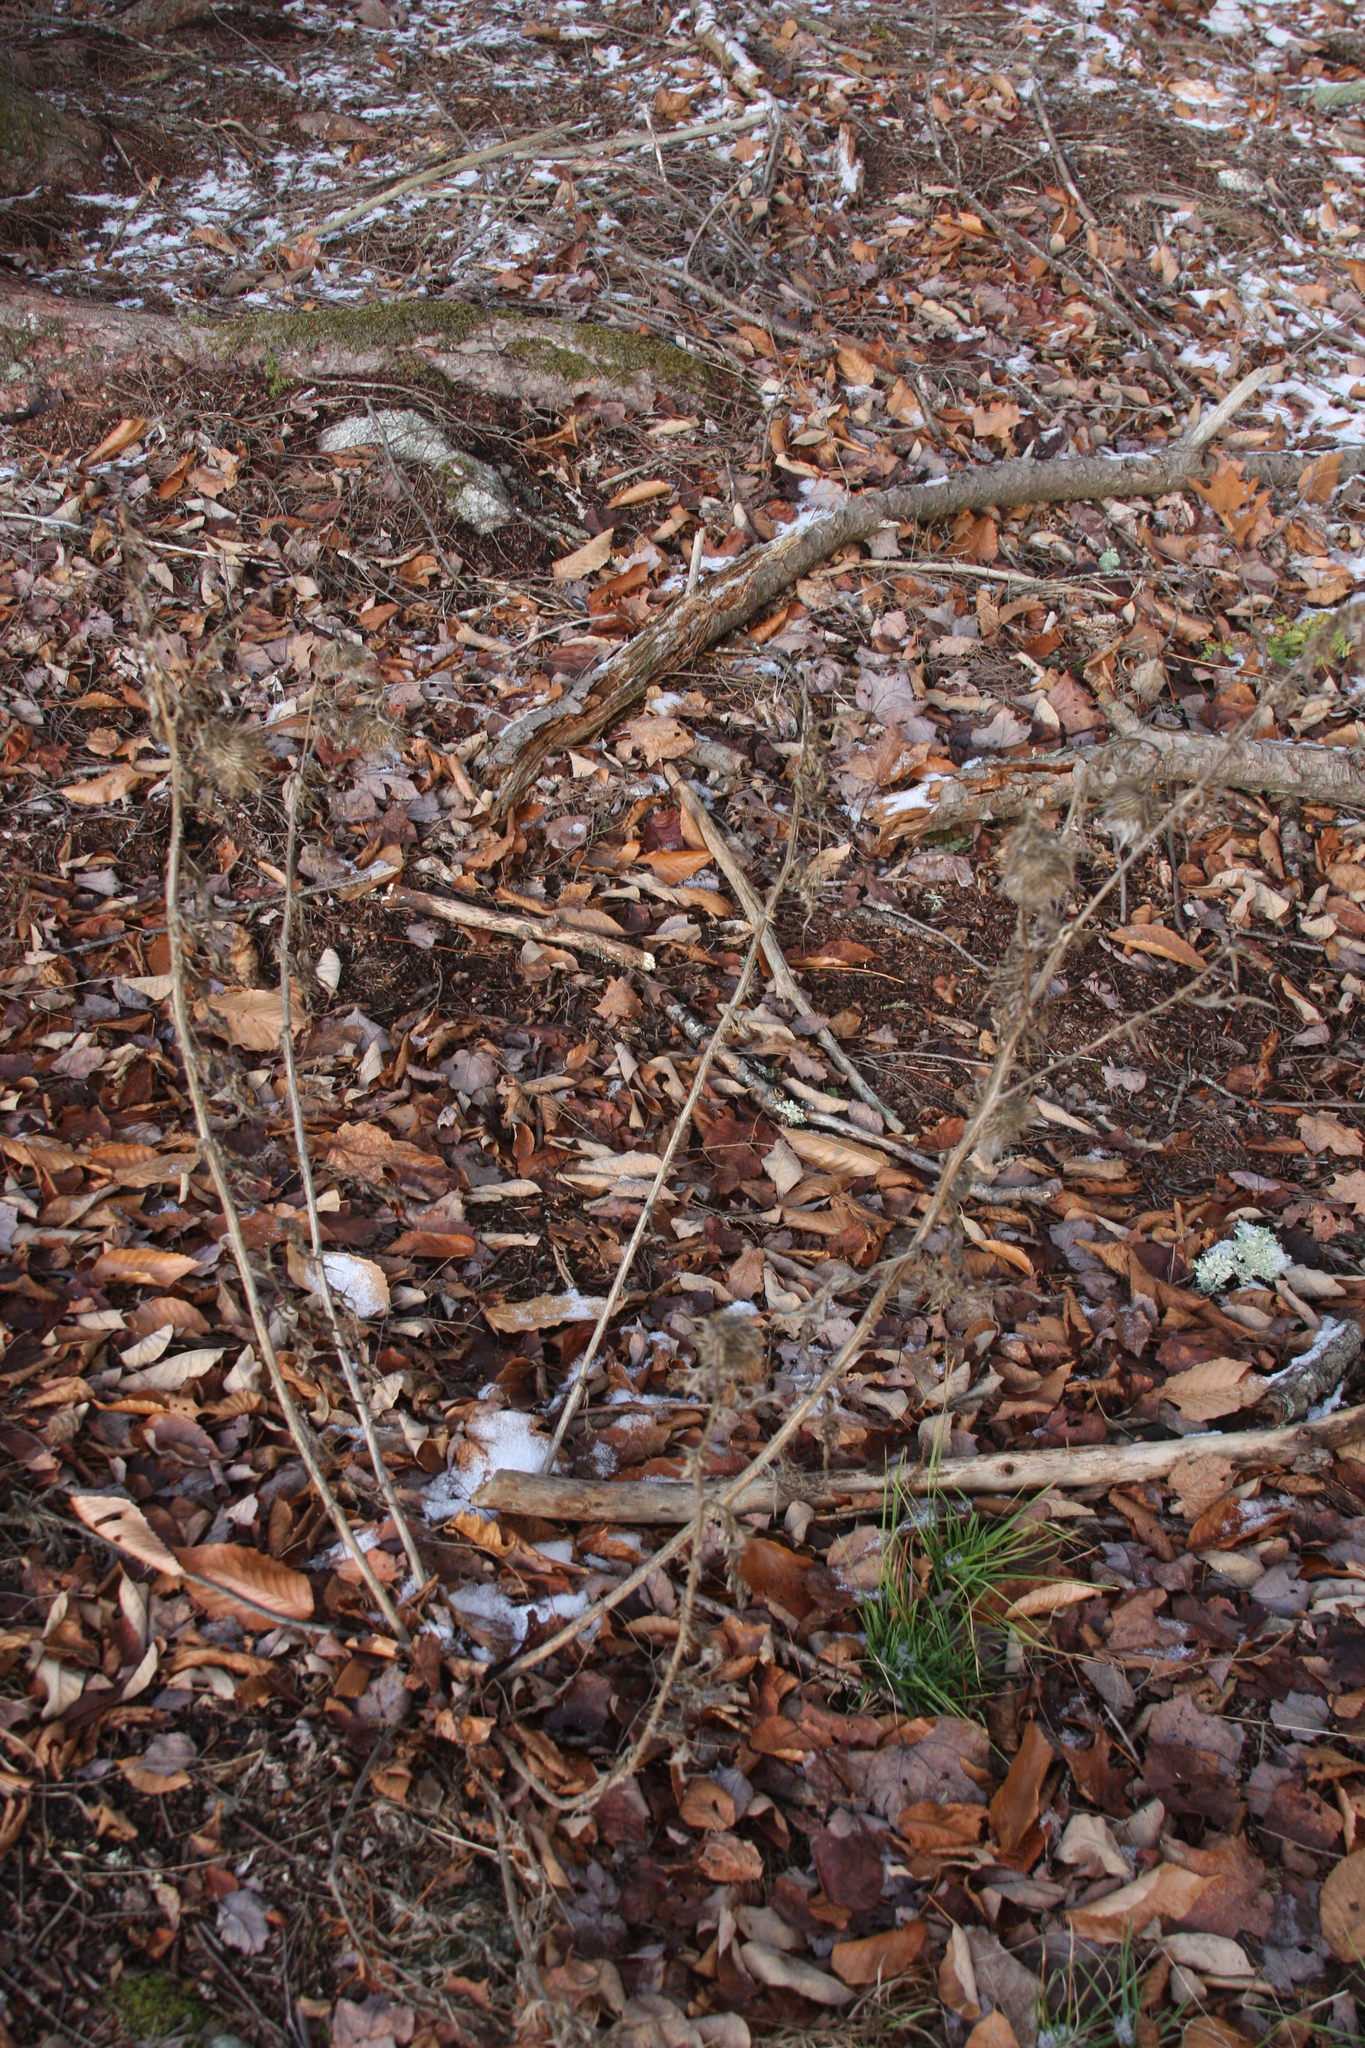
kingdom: Plantae
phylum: Tracheophyta
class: Magnoliopsida
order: Asterales
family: Asteraceae
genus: Cirsium
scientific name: Cirsium vulgare
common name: Bull thistle
